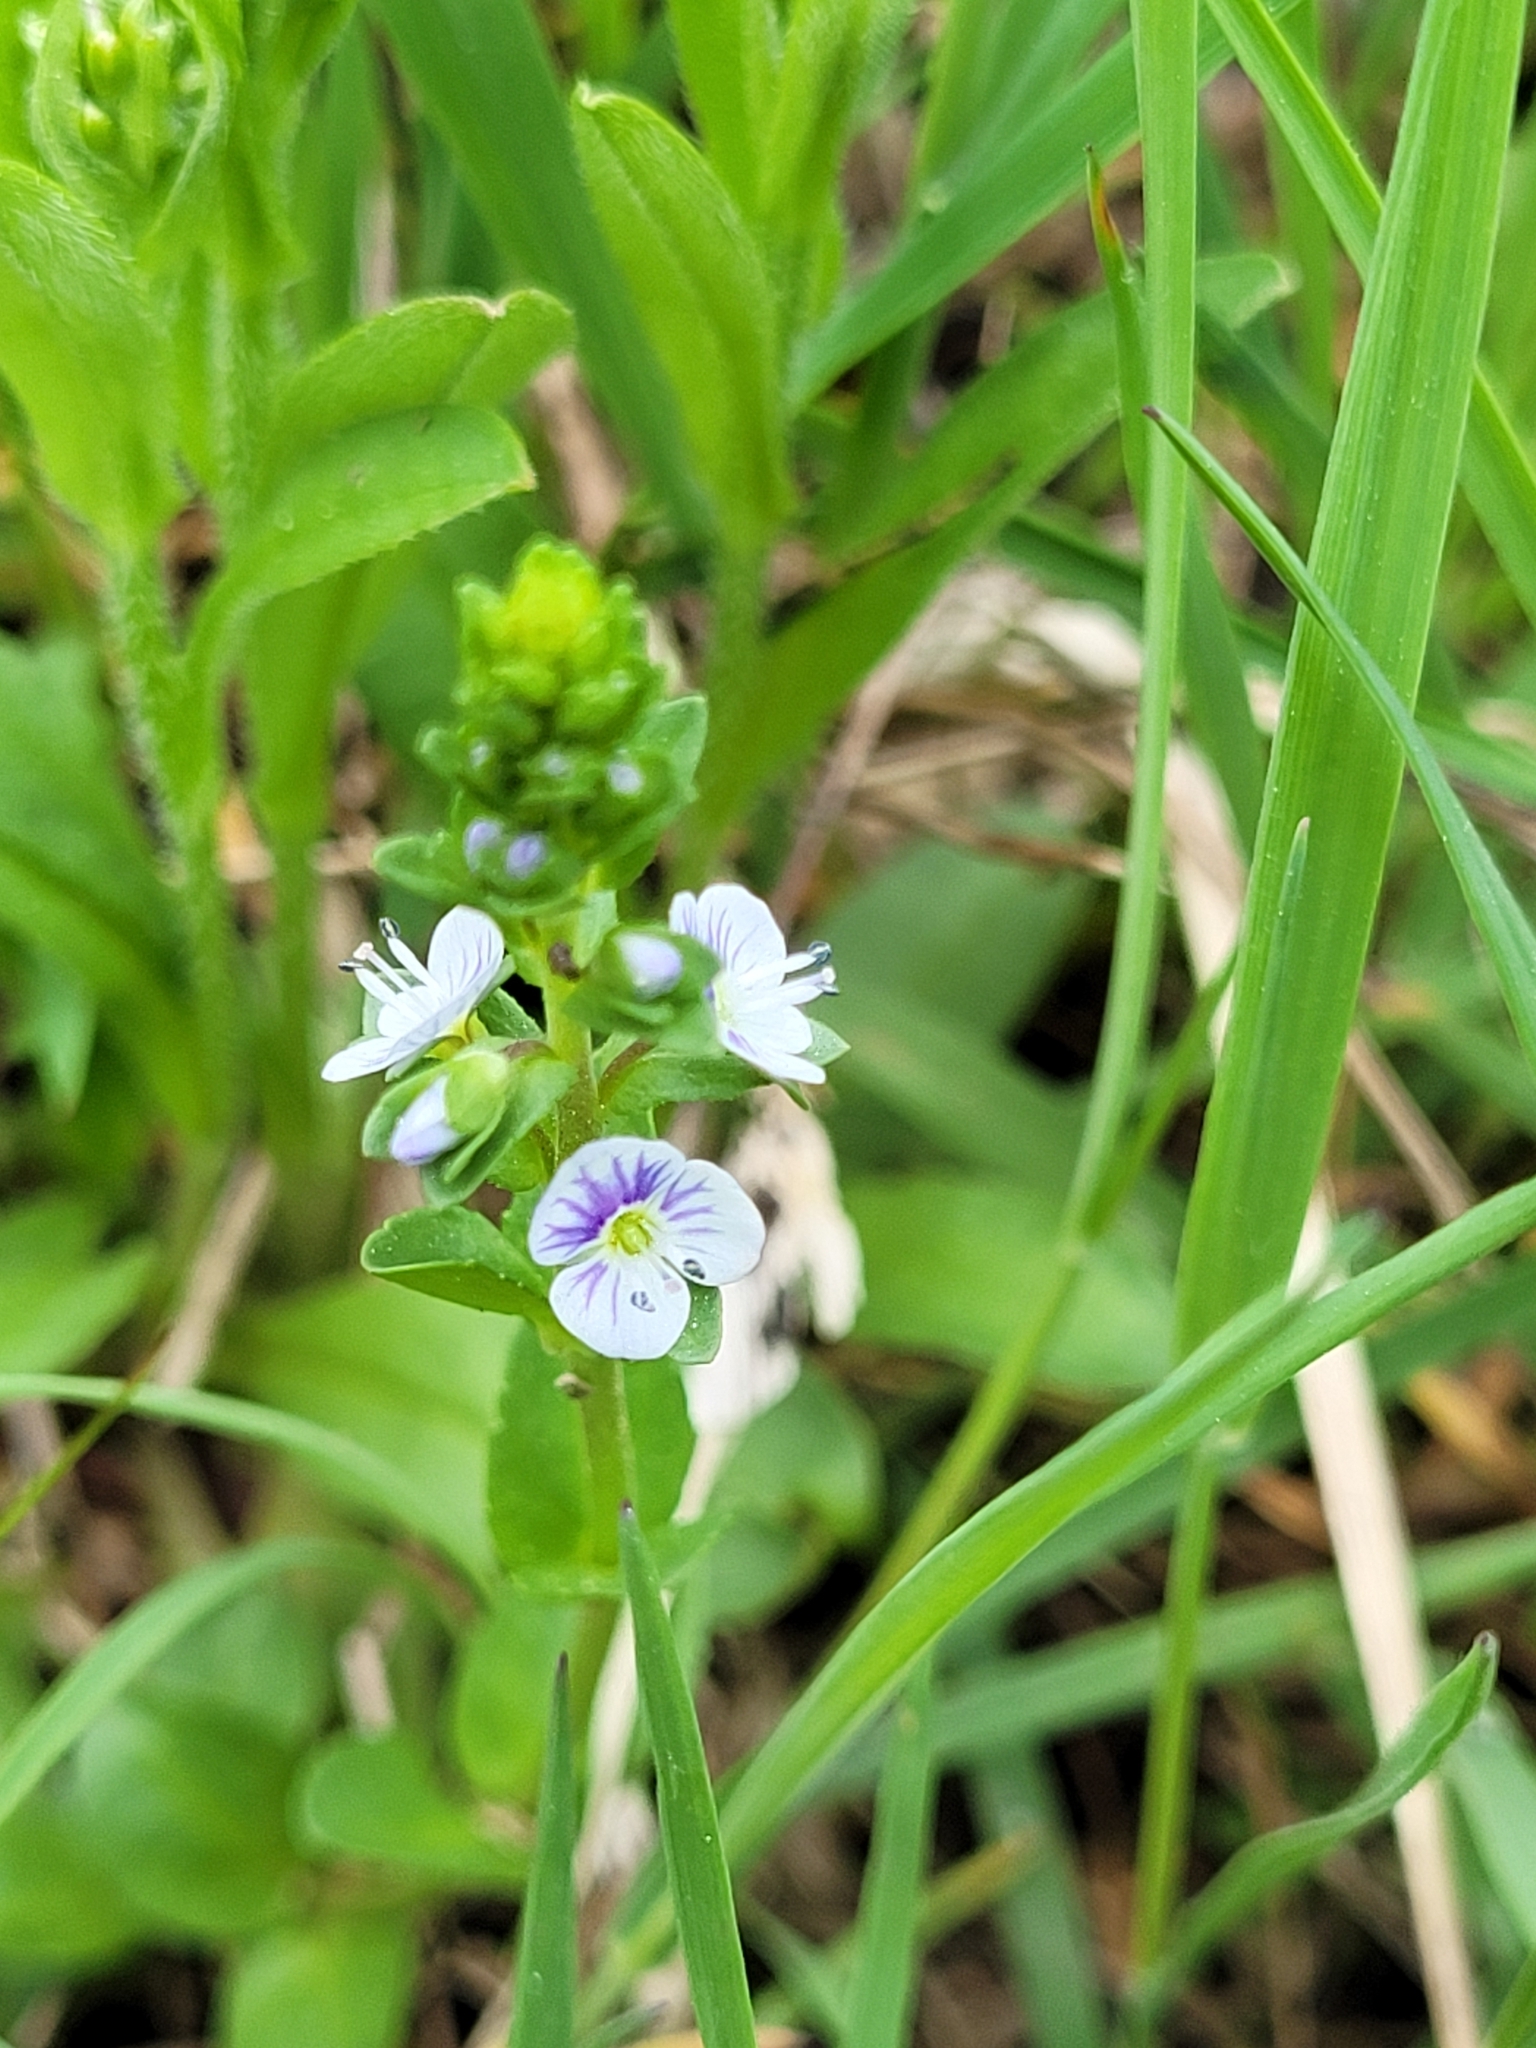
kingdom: Plantae
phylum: Tracheophyta
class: Magnoliopsida
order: Lamiales
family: Plantaginaceae
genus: Veronica
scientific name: Veronica serpyllifolia
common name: Thyme-leaved speedwell
